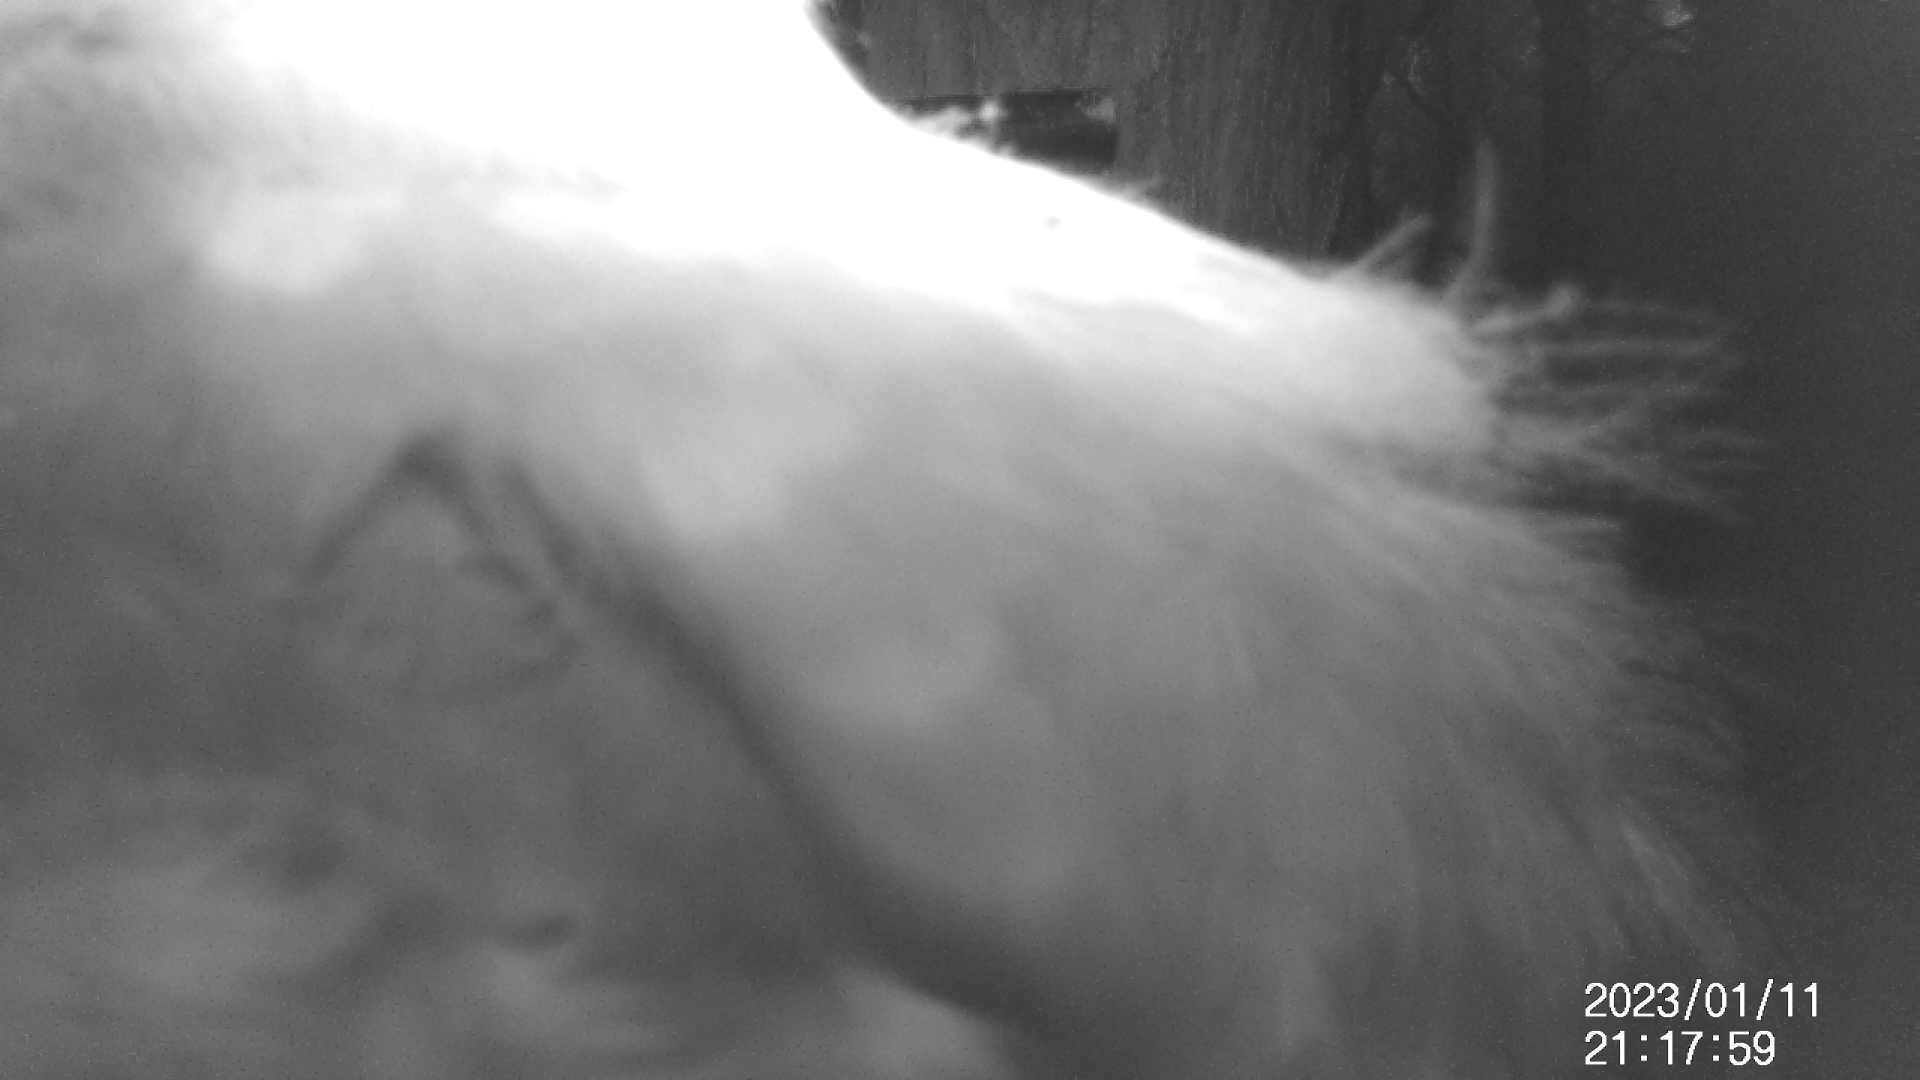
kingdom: Animalia
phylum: Chordata
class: Aves
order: Strigiformes
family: Strigidae
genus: Ninox
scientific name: Ninox boobook
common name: Southern boobook
